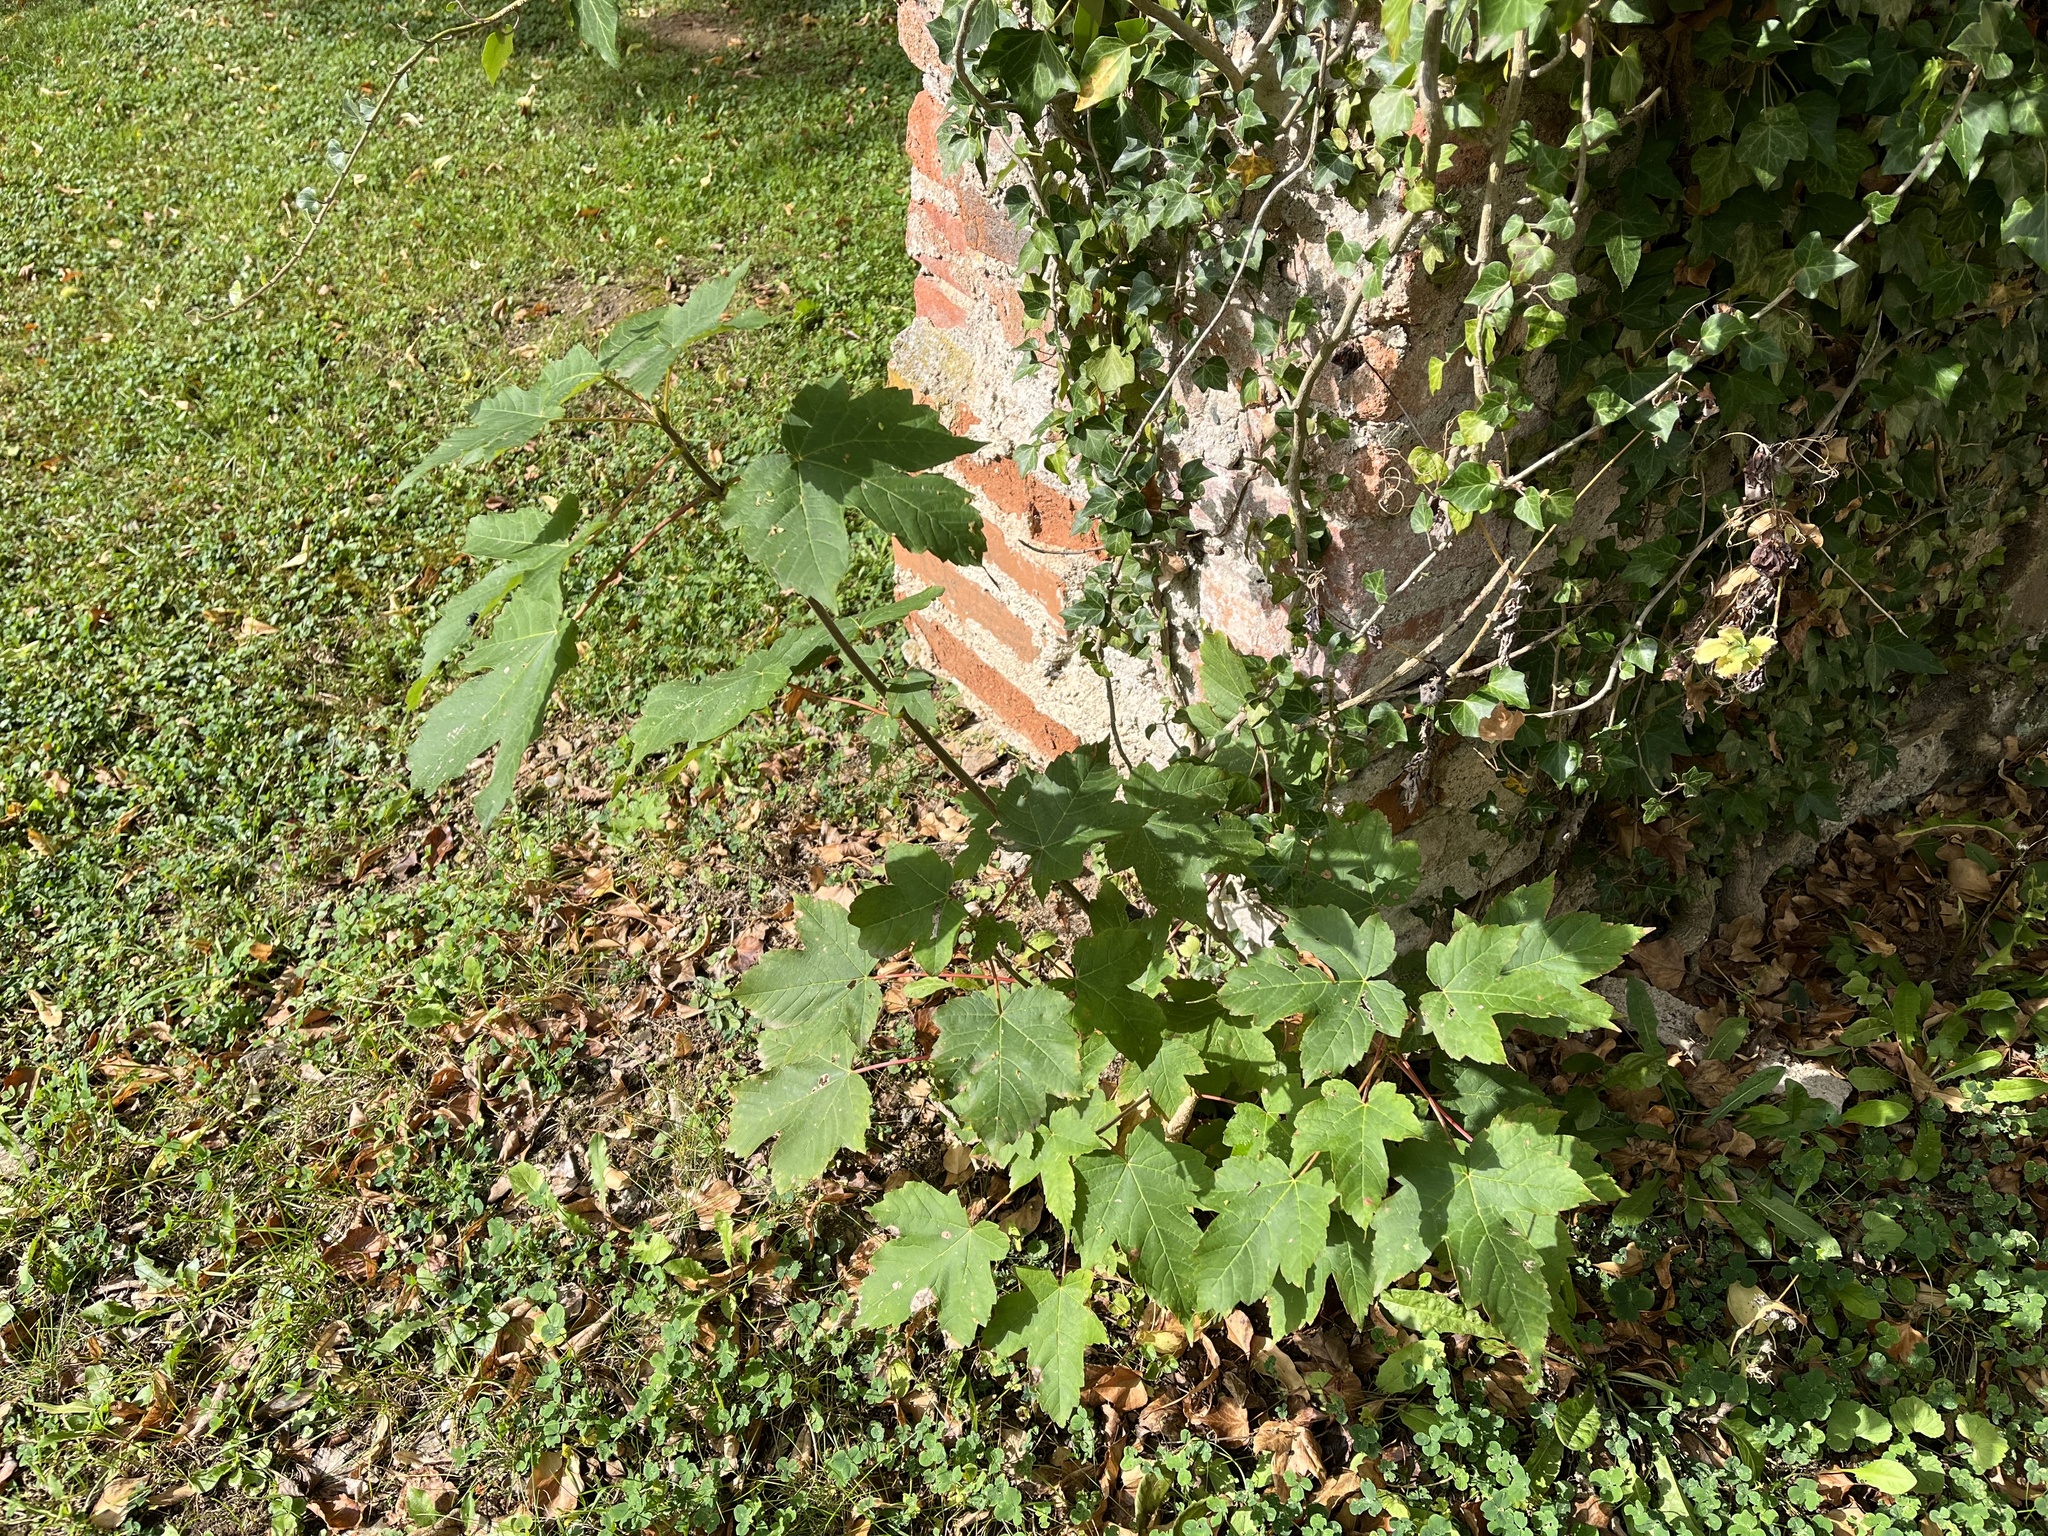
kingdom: Plantae
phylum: Tracheophyta
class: Magnoliopsida
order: Sapindales
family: Sapindaceae
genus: Acer
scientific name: Acer pseudoplatanus
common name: Sycamore
